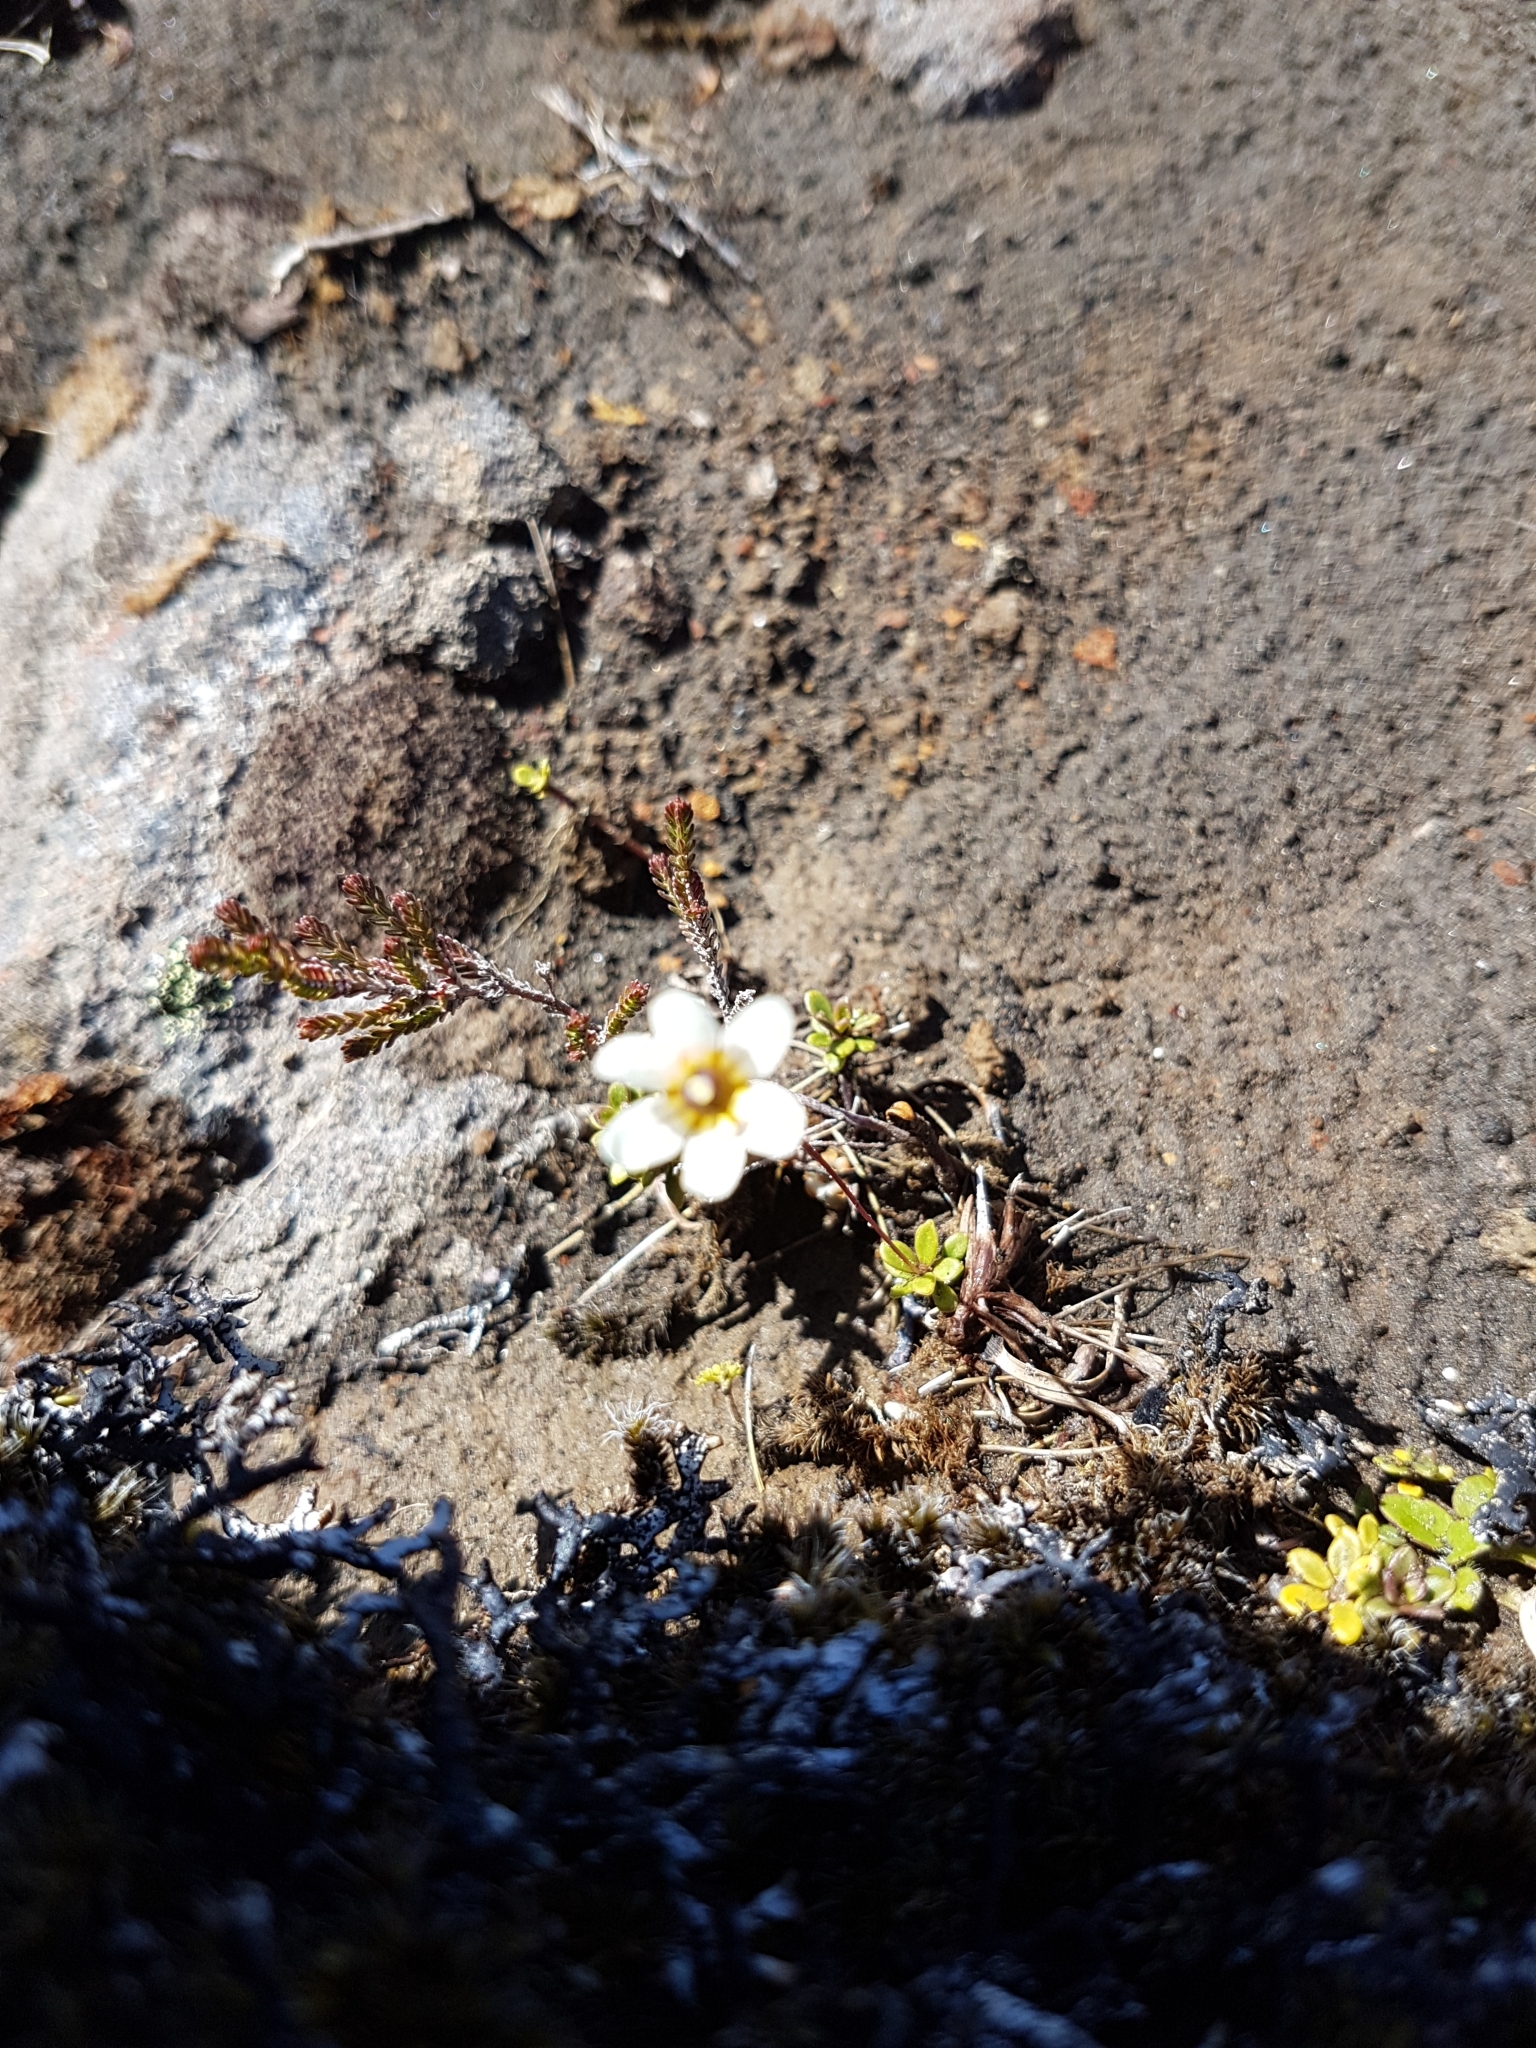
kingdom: Plantae
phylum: Tracheophyta
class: Magnoliopsida
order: Asterales
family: Stylidiaceae
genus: Forstera
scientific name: Forstera tenella
